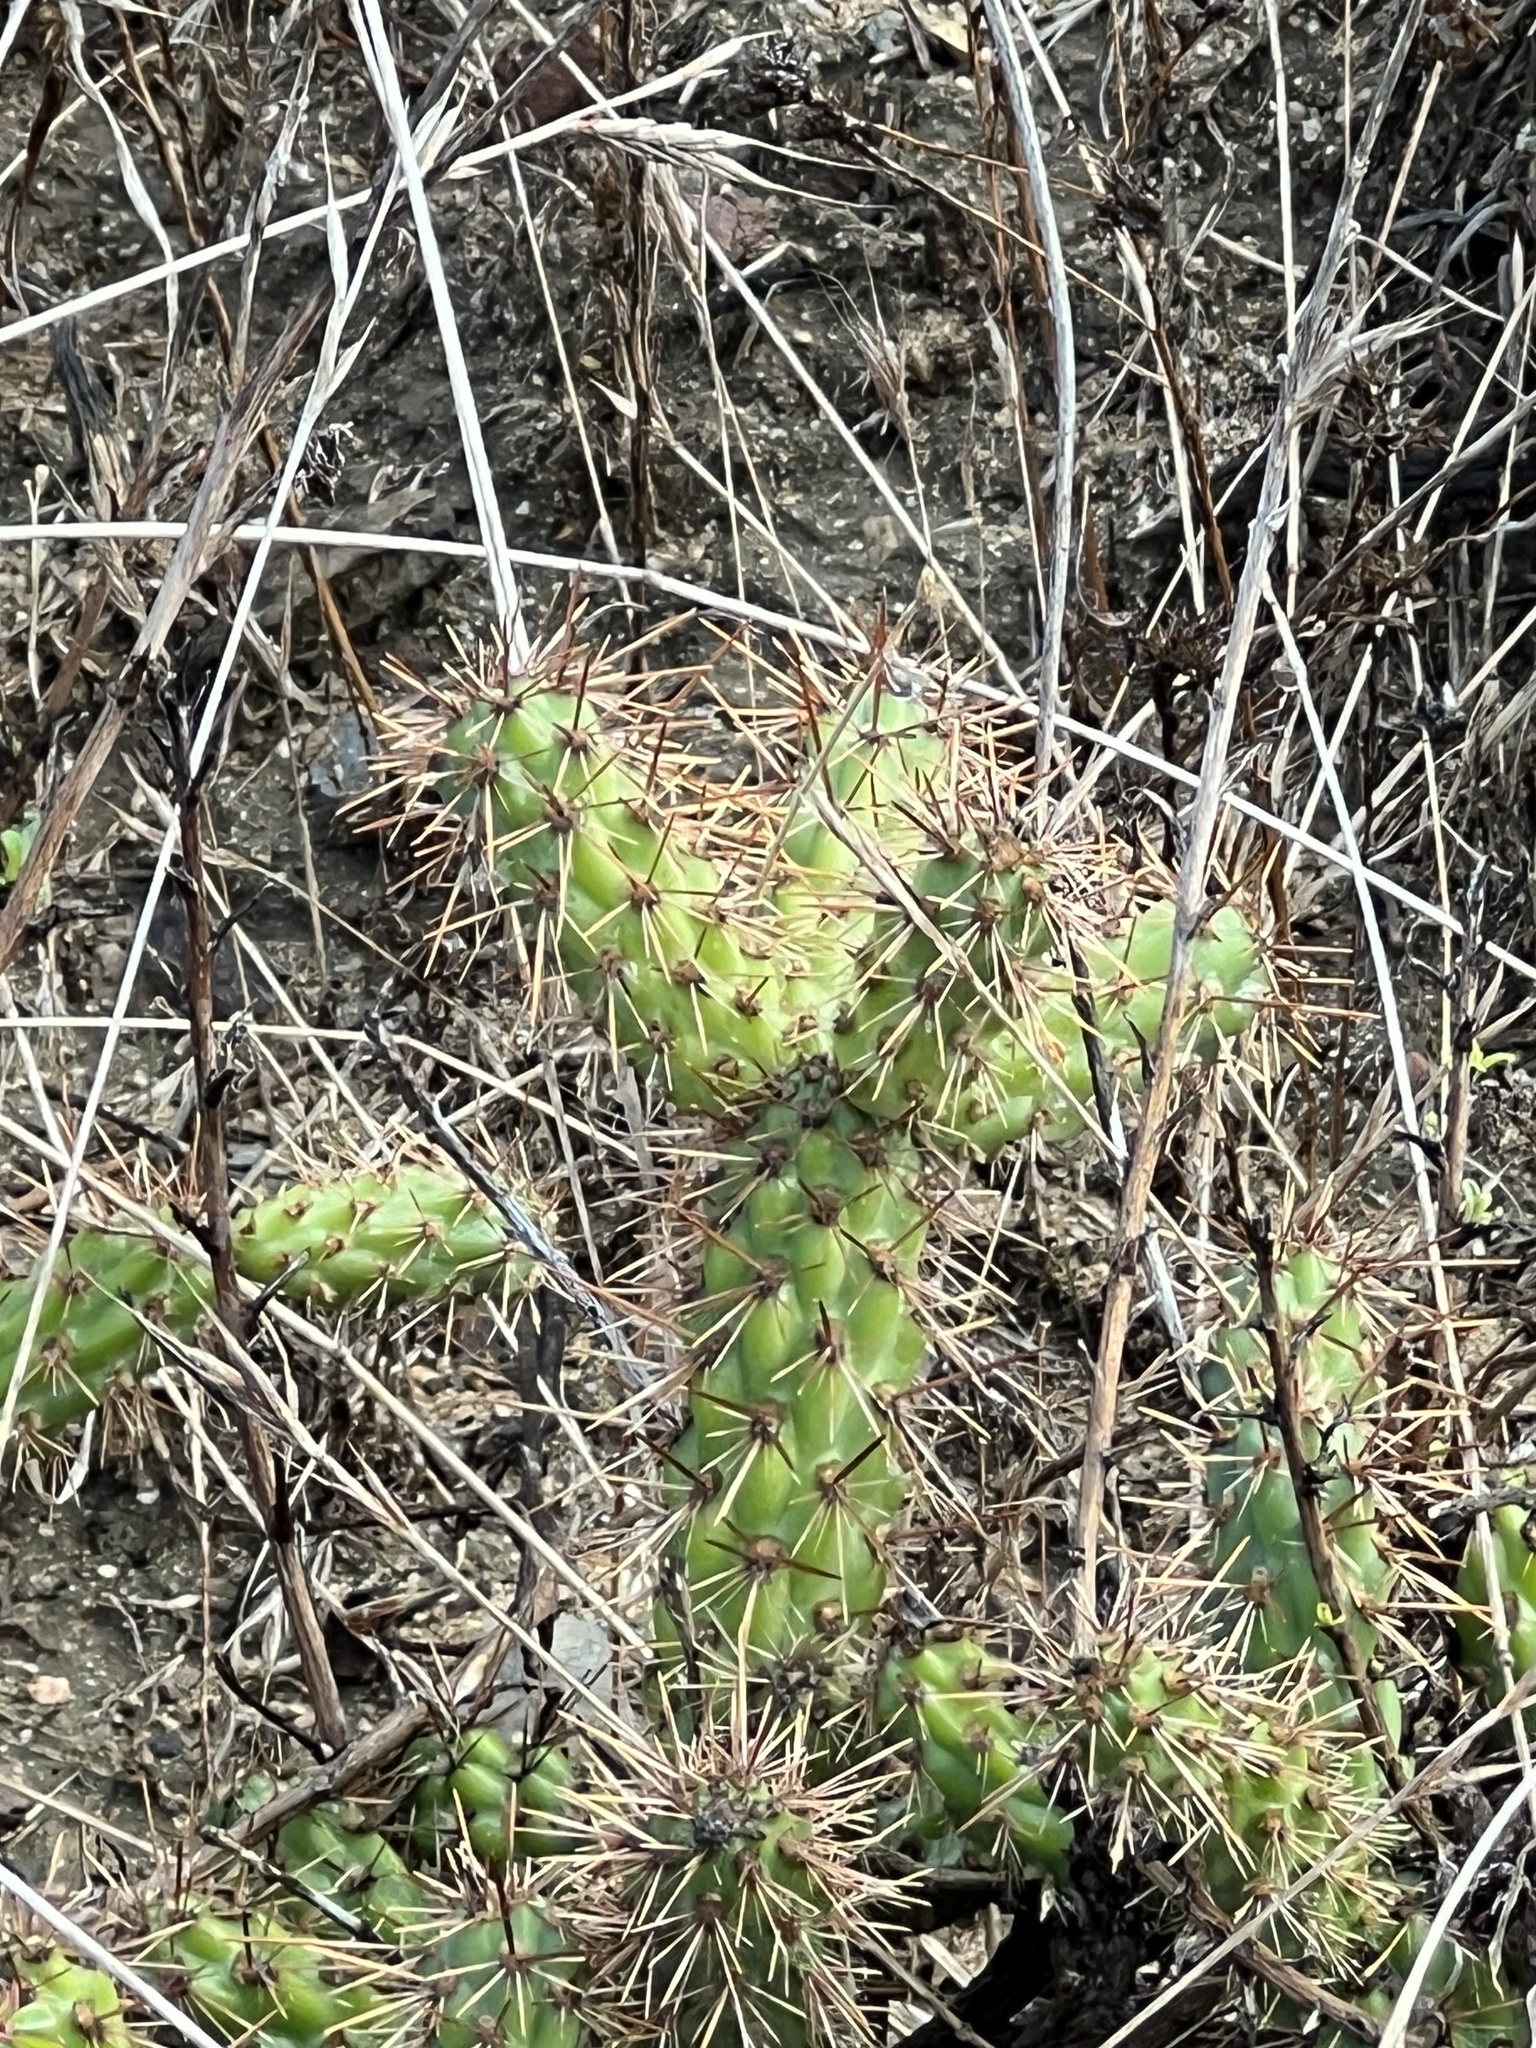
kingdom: Plantae
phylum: Tracheophyta
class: Magnoliopsida
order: Caryophyllales
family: Cactaceae
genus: Cylindropuntia
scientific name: Cylindropuntia prolifera
